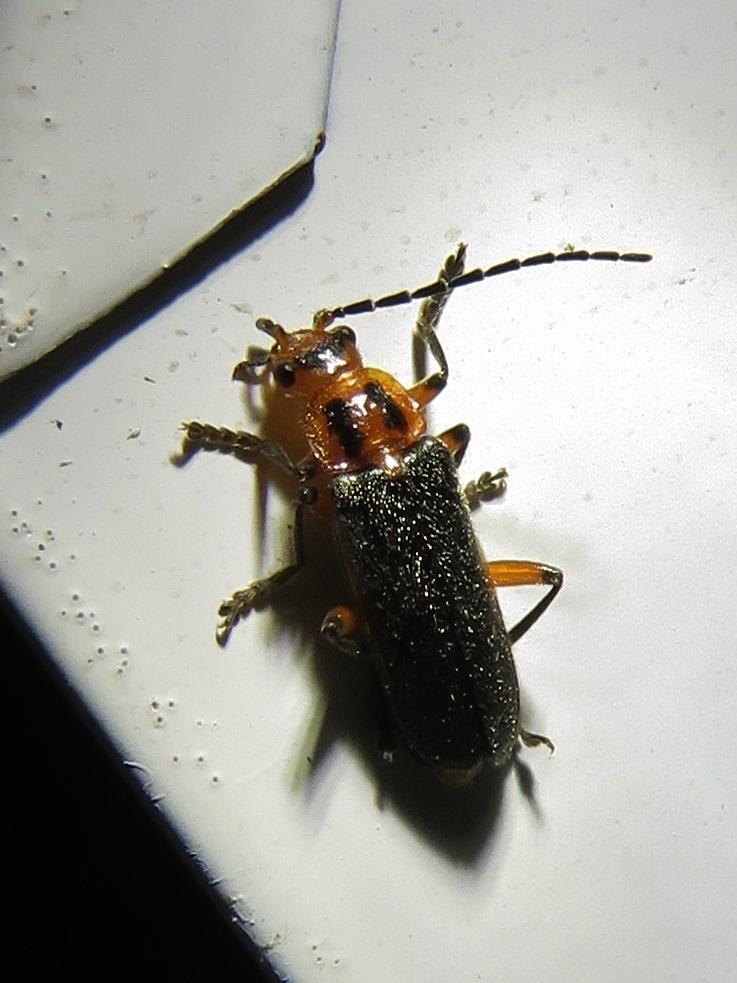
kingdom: Animalia
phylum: Arthropoda
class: Insecta
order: Coleoptera
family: Cantharidae
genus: Atalantycha
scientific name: Atalantycha bilineata
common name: Two-lined leatherwing
